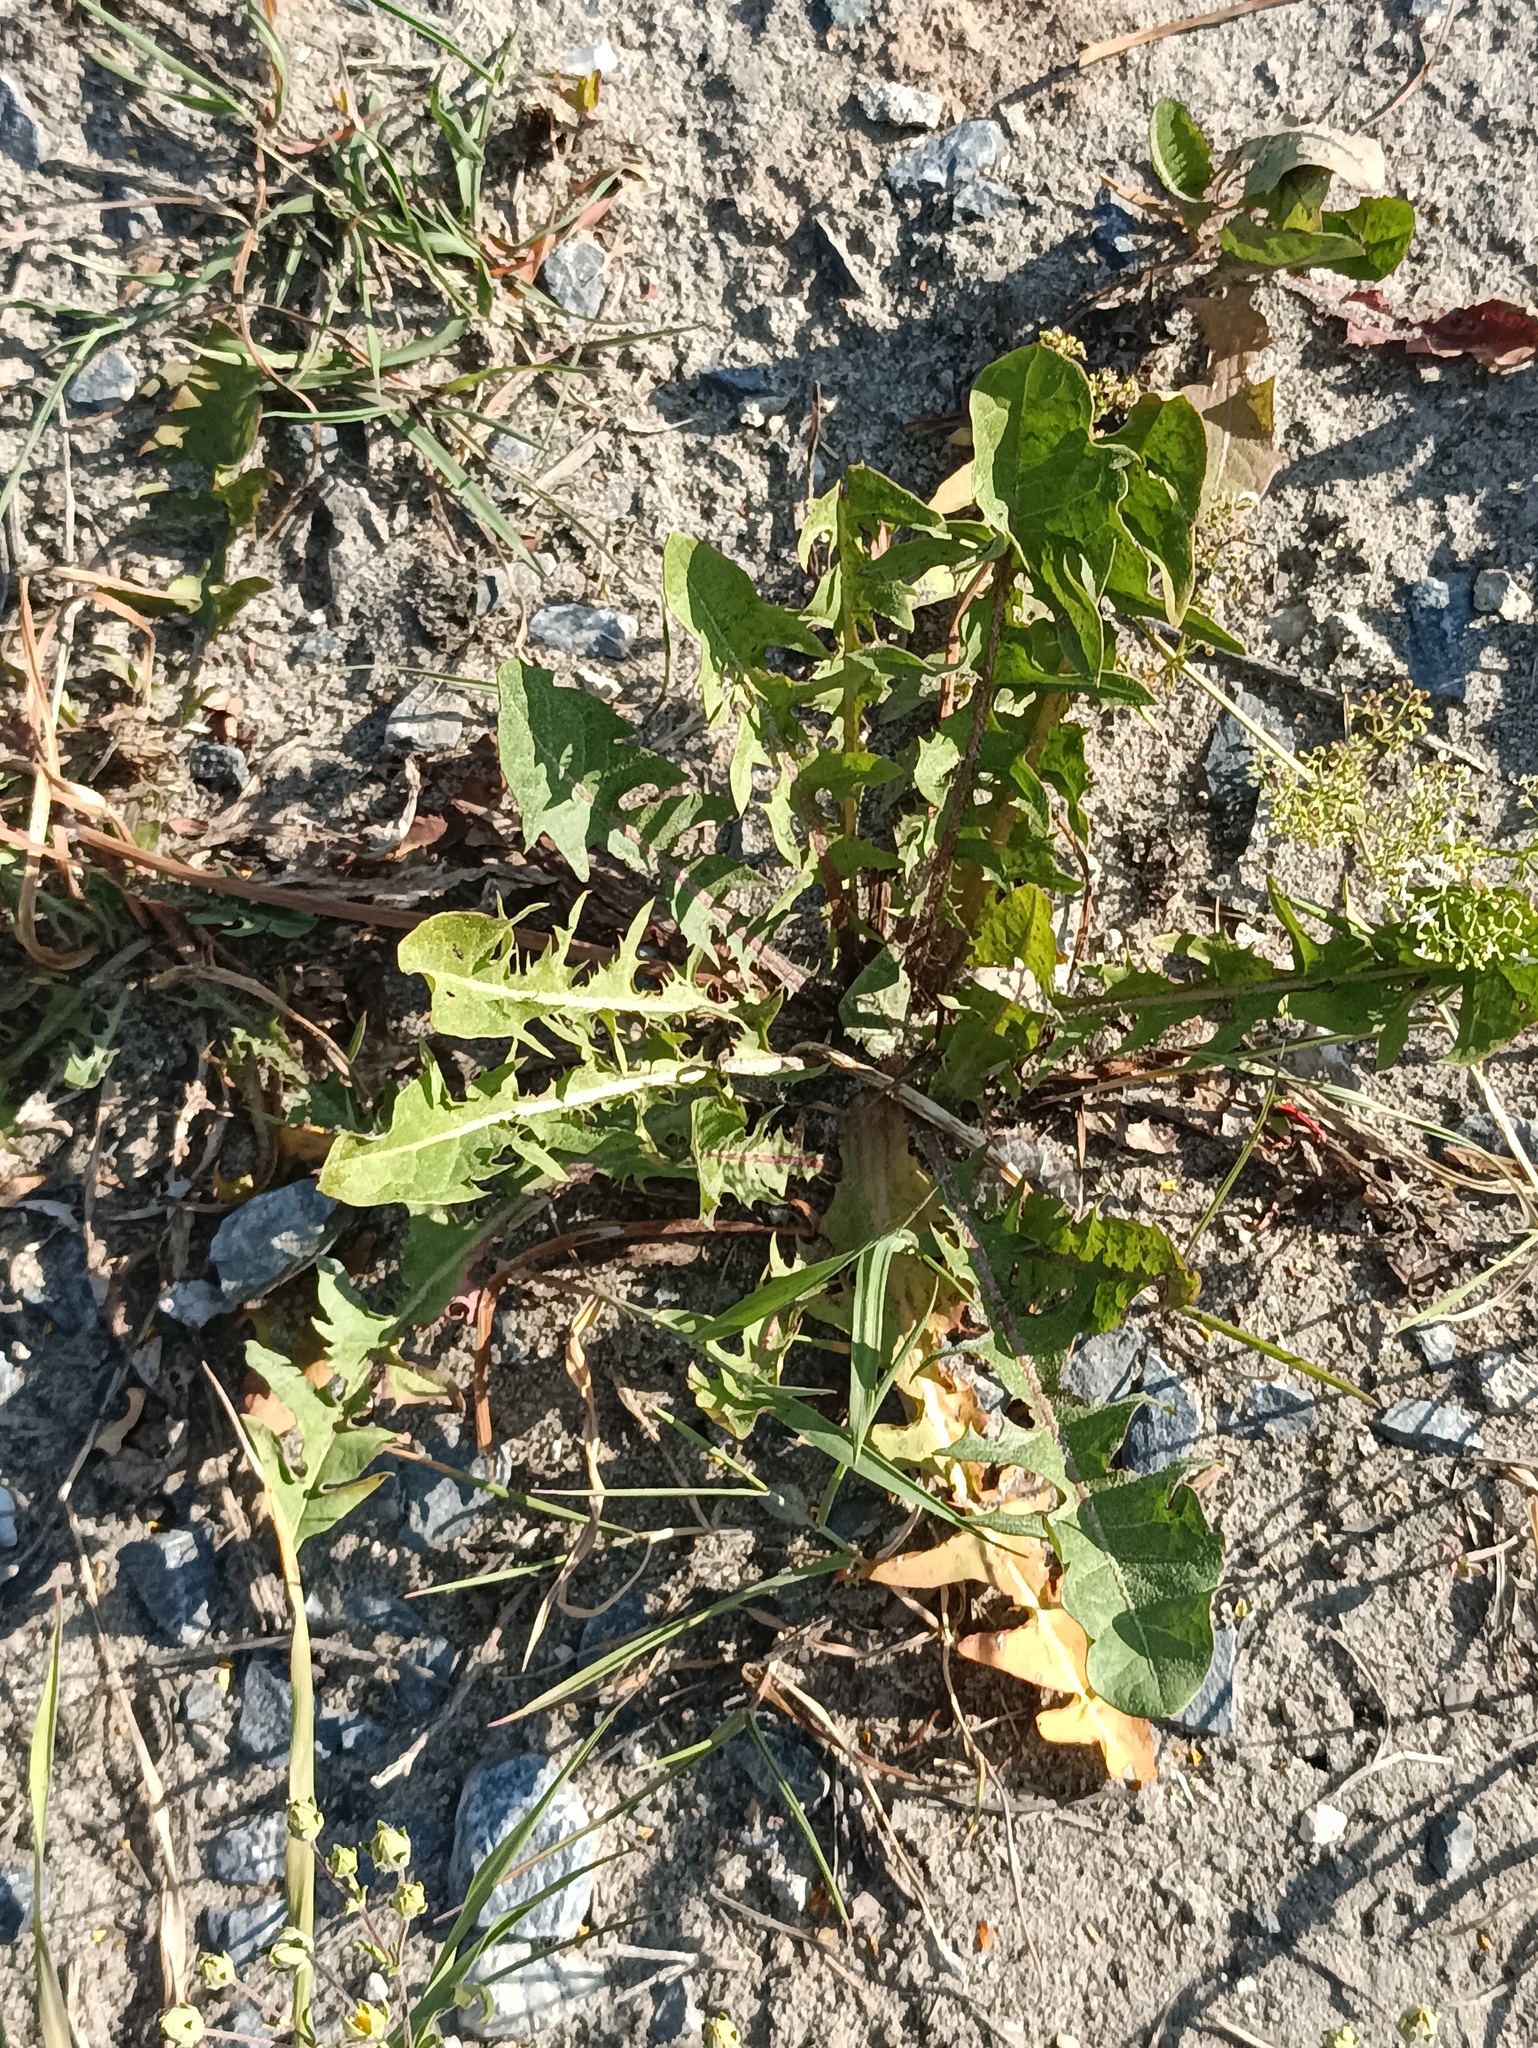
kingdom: Plantae
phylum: Tracheophyta
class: Magnoliopsida
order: Asterales
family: Asteraceae
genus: Taraxacum
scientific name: Taraxacum officinale
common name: Common dandelion
